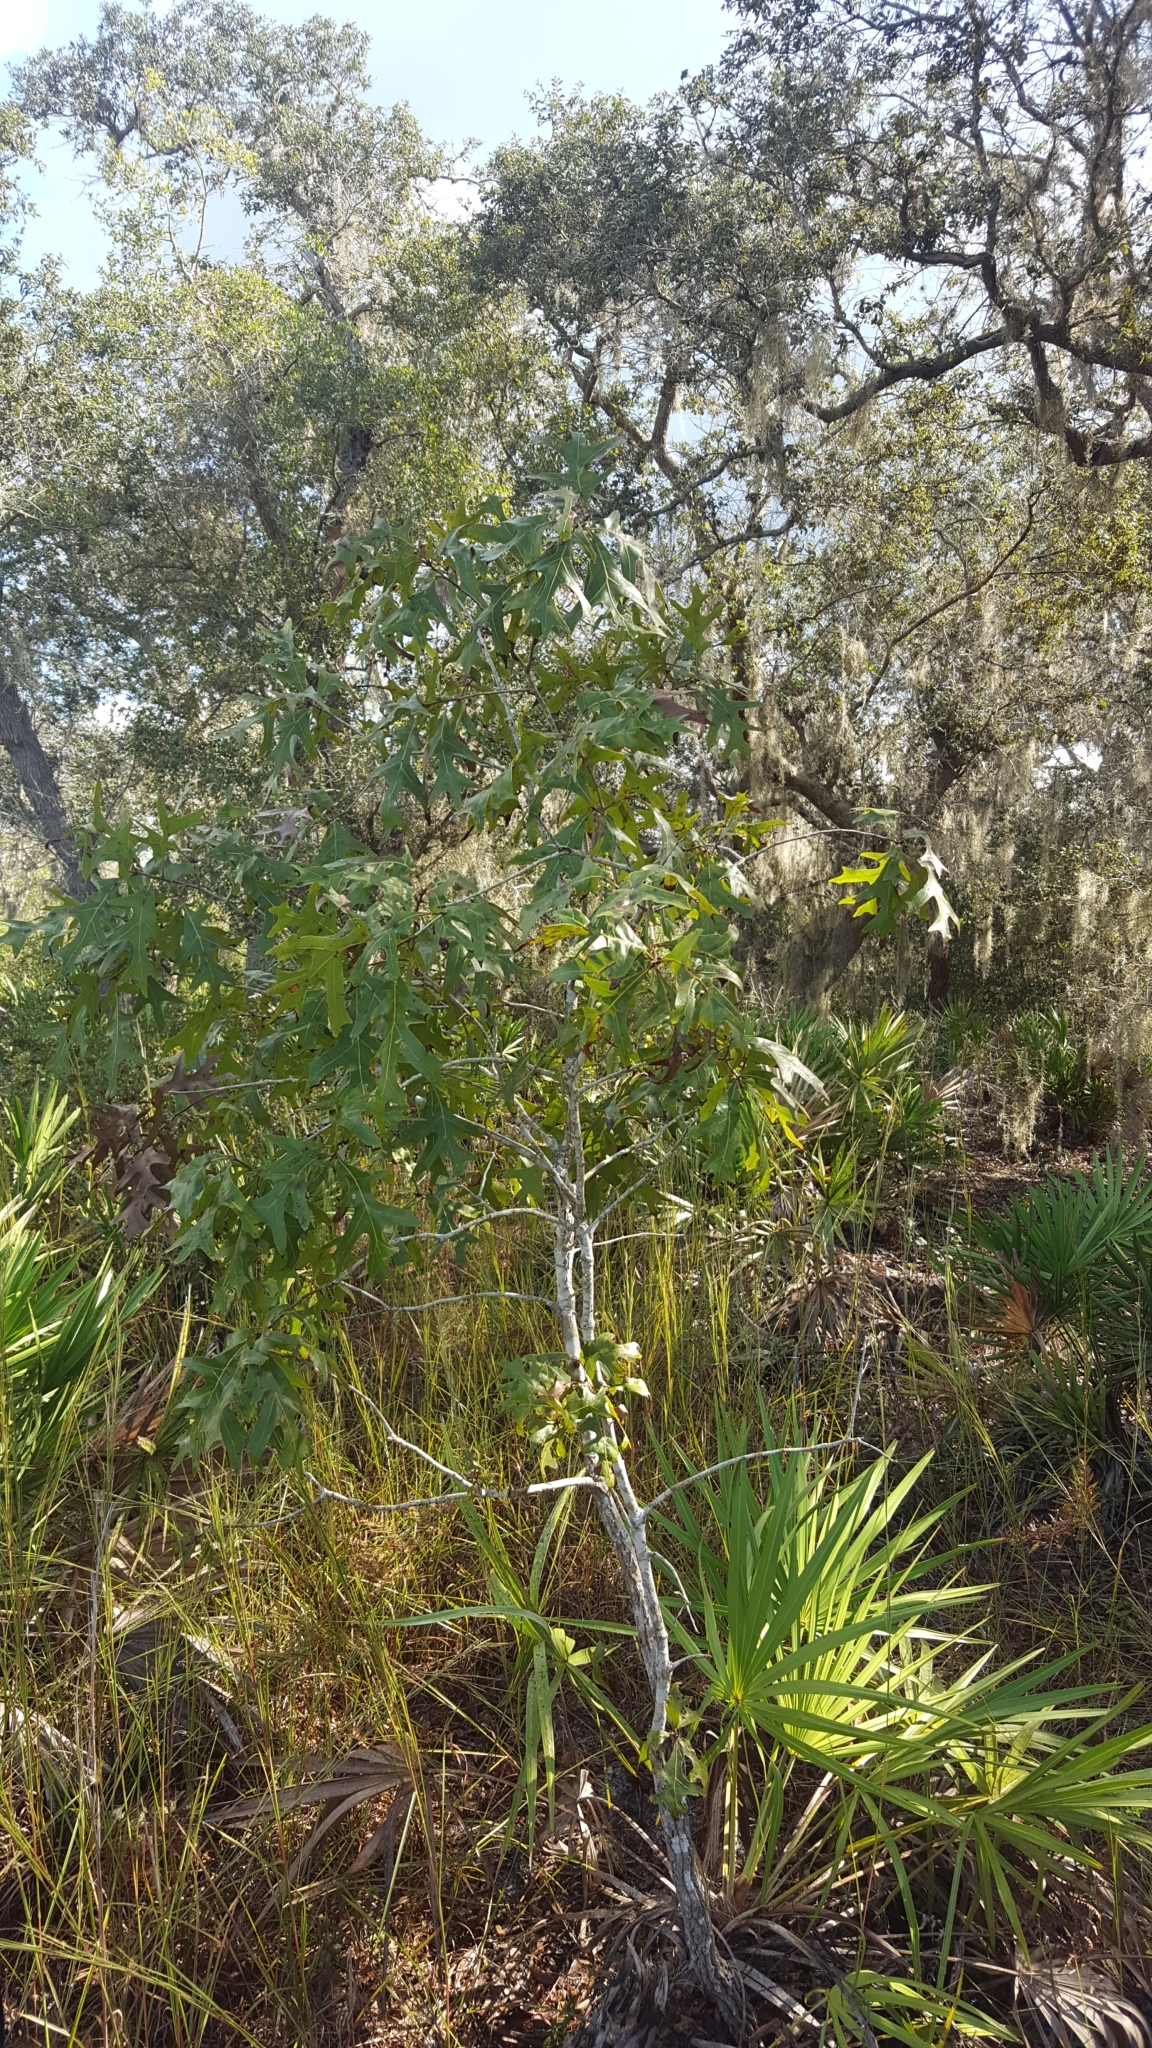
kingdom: Plantae
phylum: Tracheophyta
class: Magnoliopsida
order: Fagales
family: Fagaceae
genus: Quercus
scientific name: Quercus laevis
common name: Turkey oak
